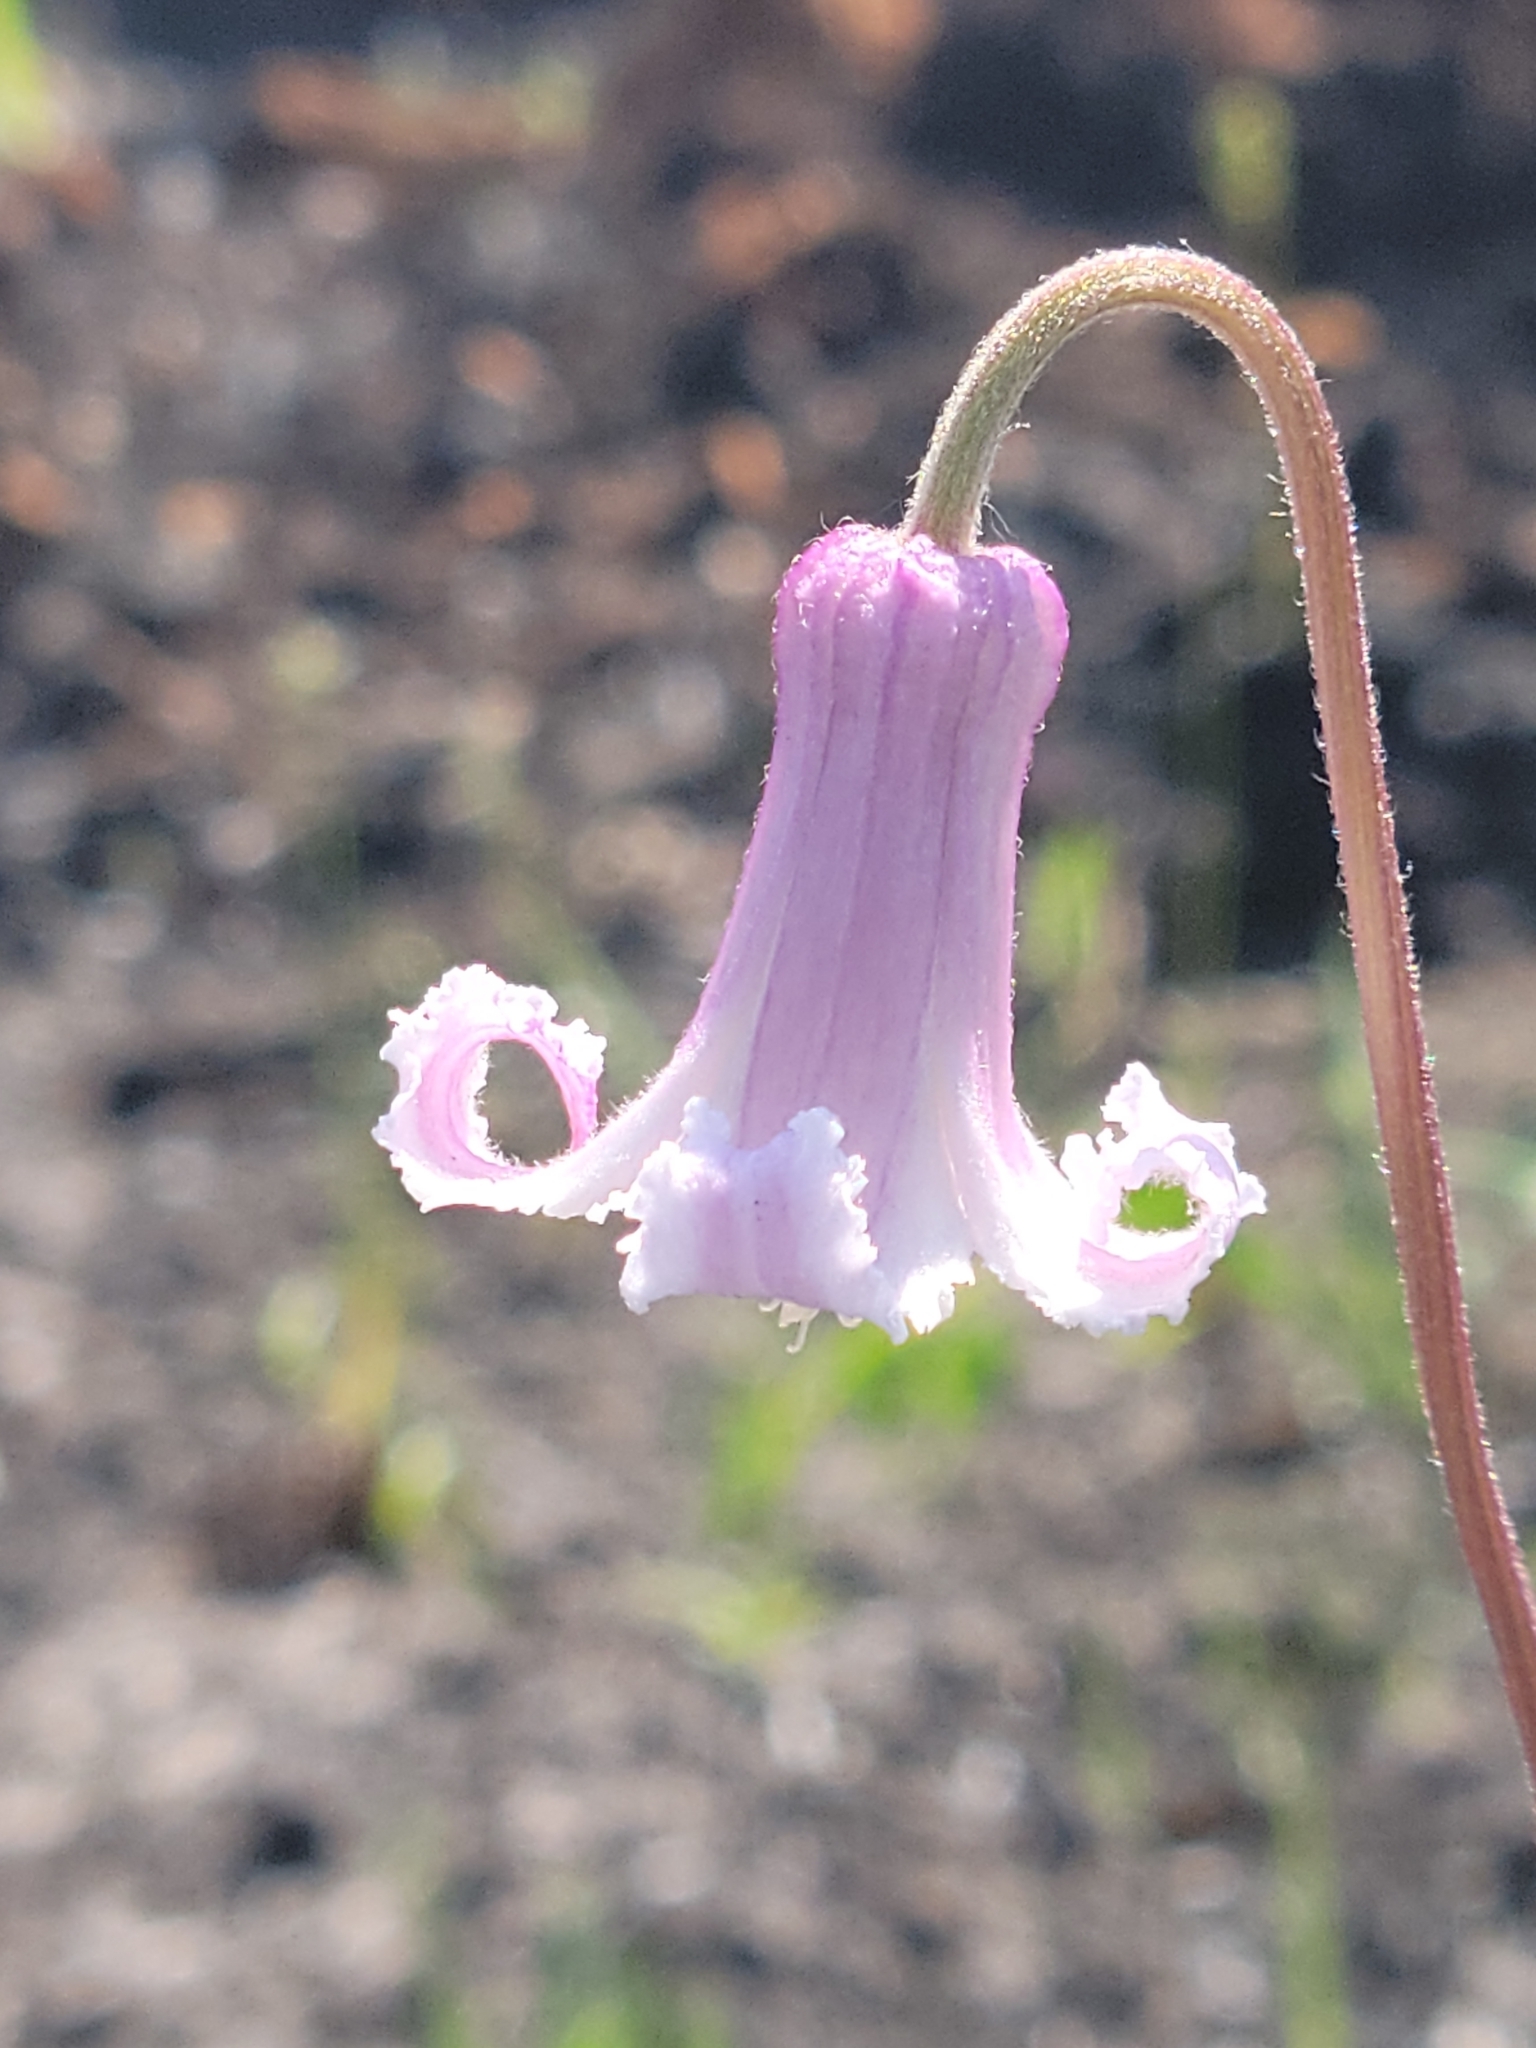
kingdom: Plantae
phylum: Tracheophyta
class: Magnoliopsida
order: Ranunculales
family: Ranunculaceae
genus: Clematis
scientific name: Clematis baldwinii
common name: Pine-hyacinth
